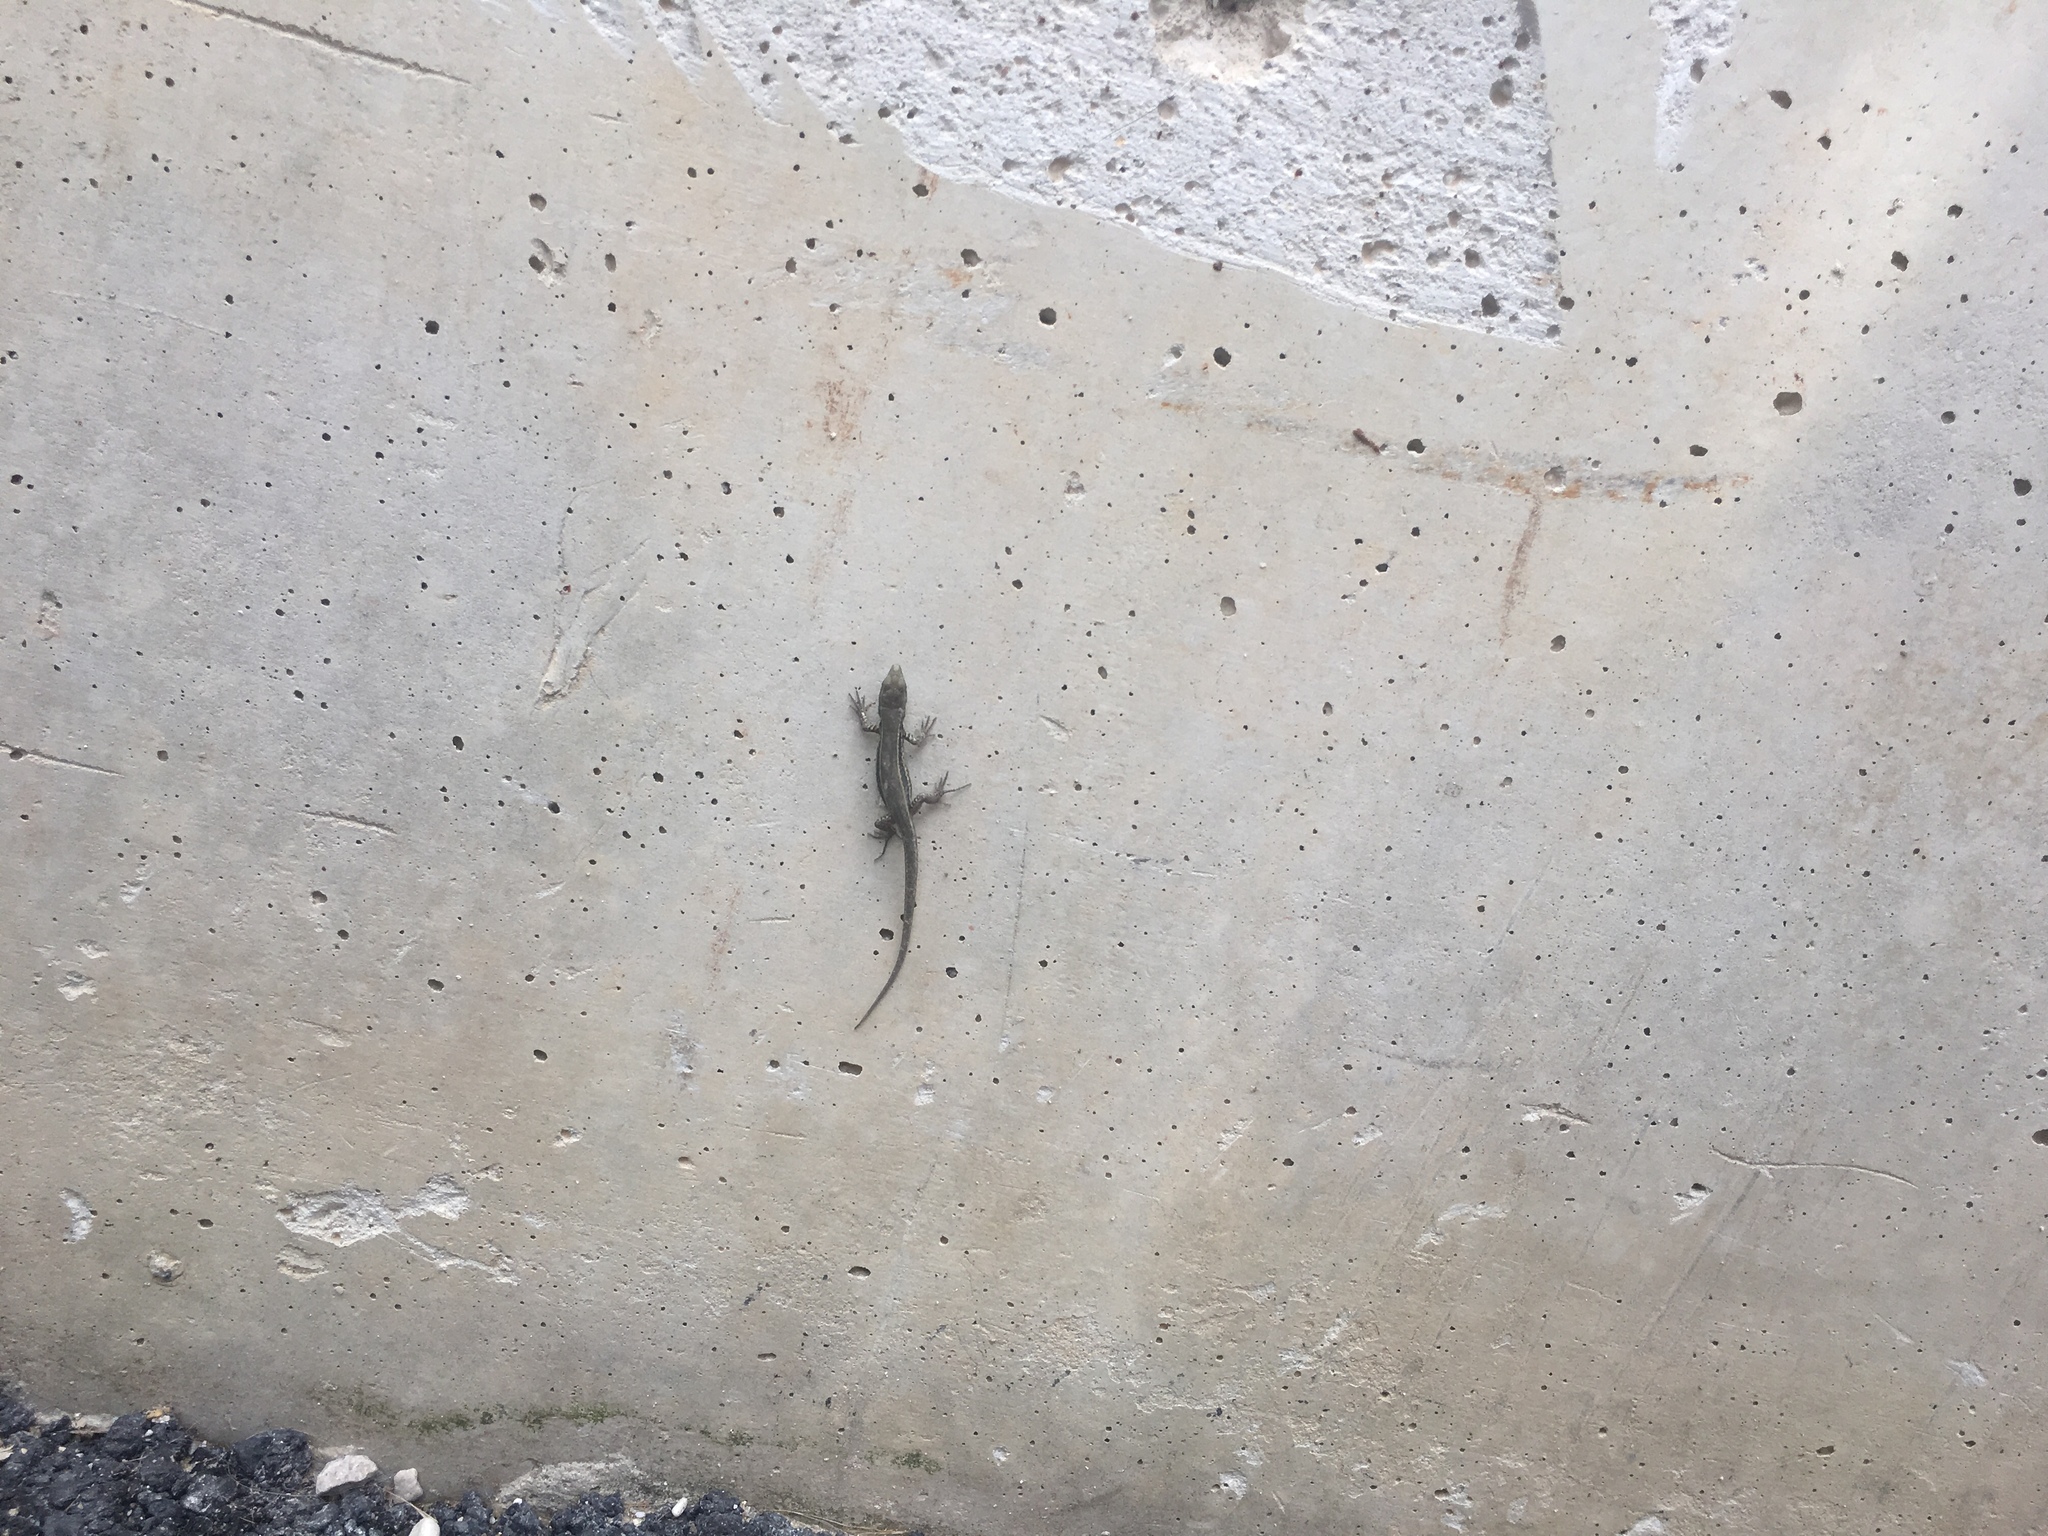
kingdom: Animalia
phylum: Chordata
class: Squamata
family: Lacertidae
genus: Podarcis
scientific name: Podarcis muralis
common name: Common wall lizard
